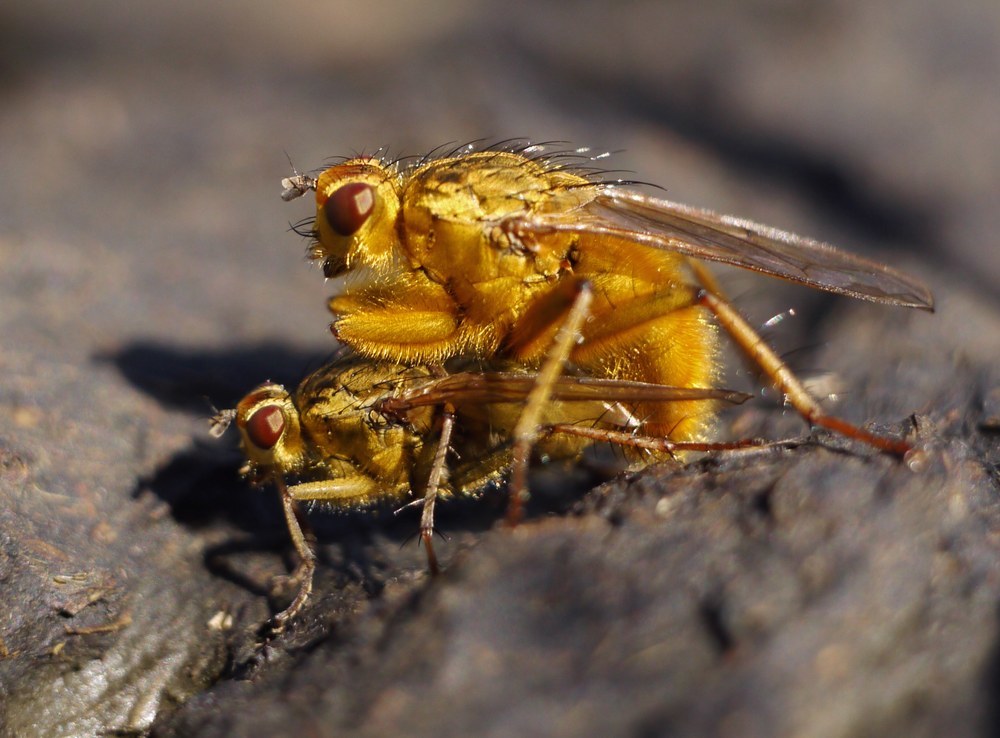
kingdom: Animalia
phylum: Arthropoda
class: Insecta
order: Diptera
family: Scathophagidae
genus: Scathophaga
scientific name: Scathophaga stercoraria
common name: Yellow dung fly
